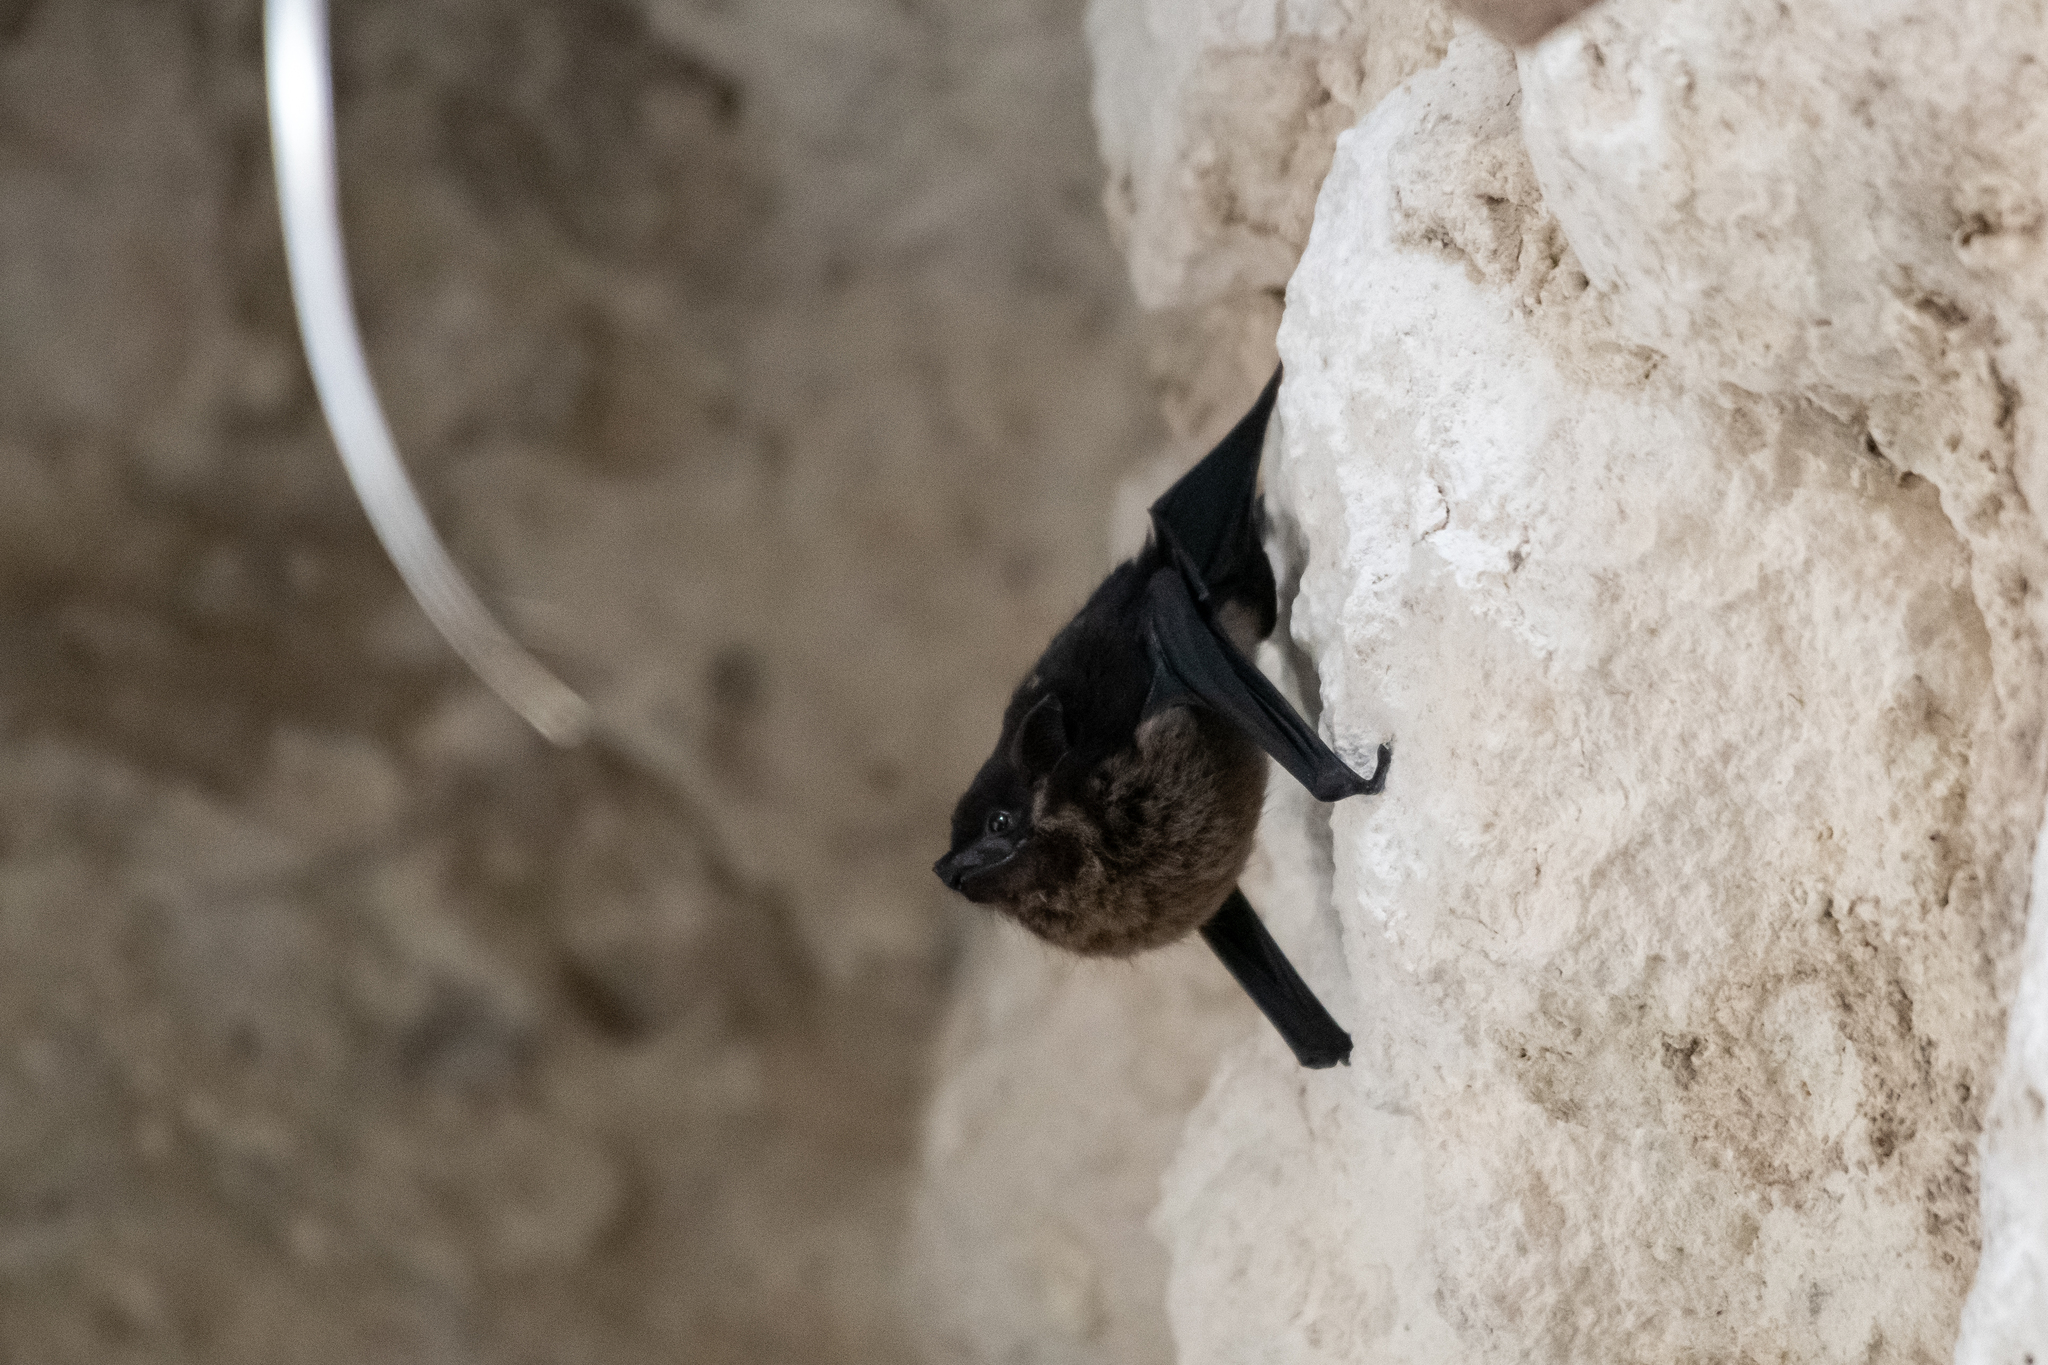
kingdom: Animalia
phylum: Chordata
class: Mammalia
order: Chiroptera
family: Emballonuridae
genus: Saccopteryx
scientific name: Saccopteryx bilineata
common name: Greater sac-winged bat
